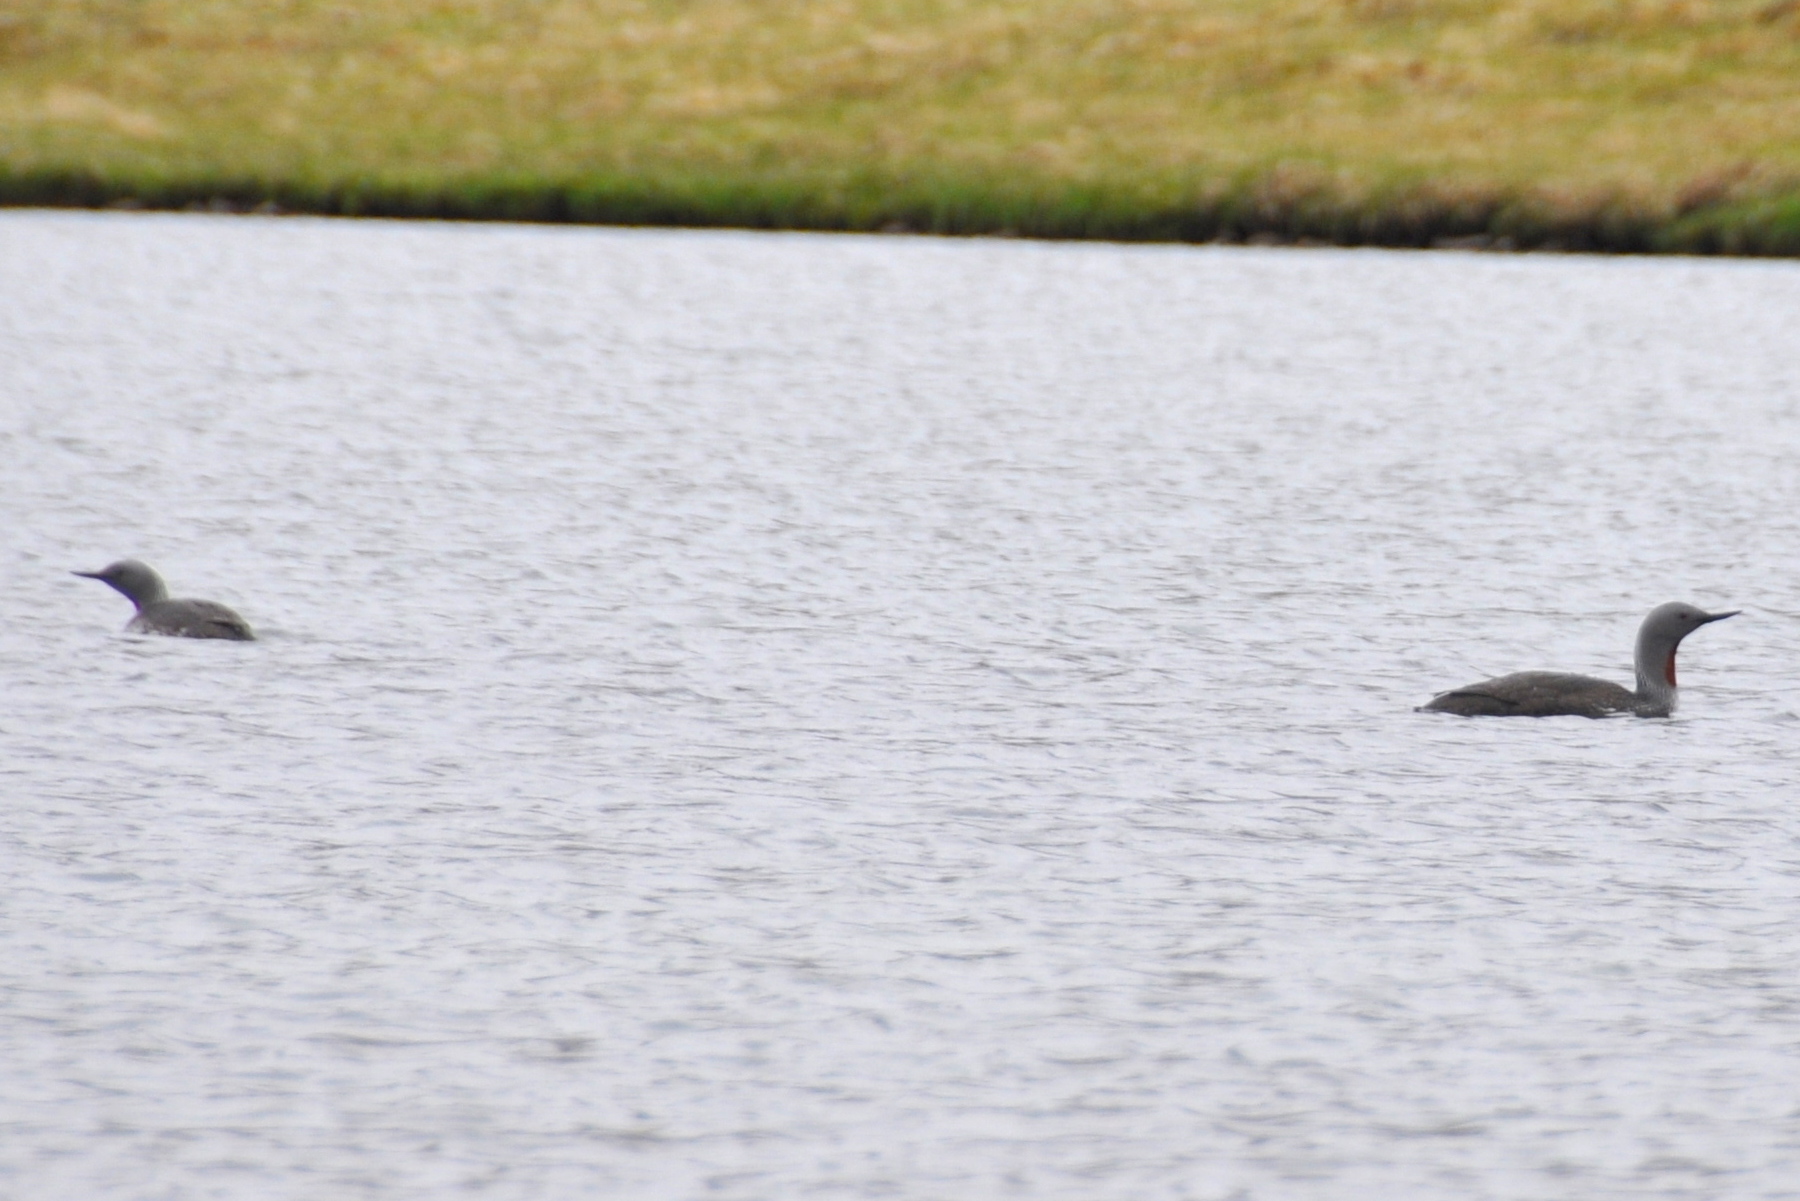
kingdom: Animalia
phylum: Chordata
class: Aves
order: Gaviiformes
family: Gaviidae
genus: Gavia
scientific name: Gavia stellata
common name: Red-throated loon
